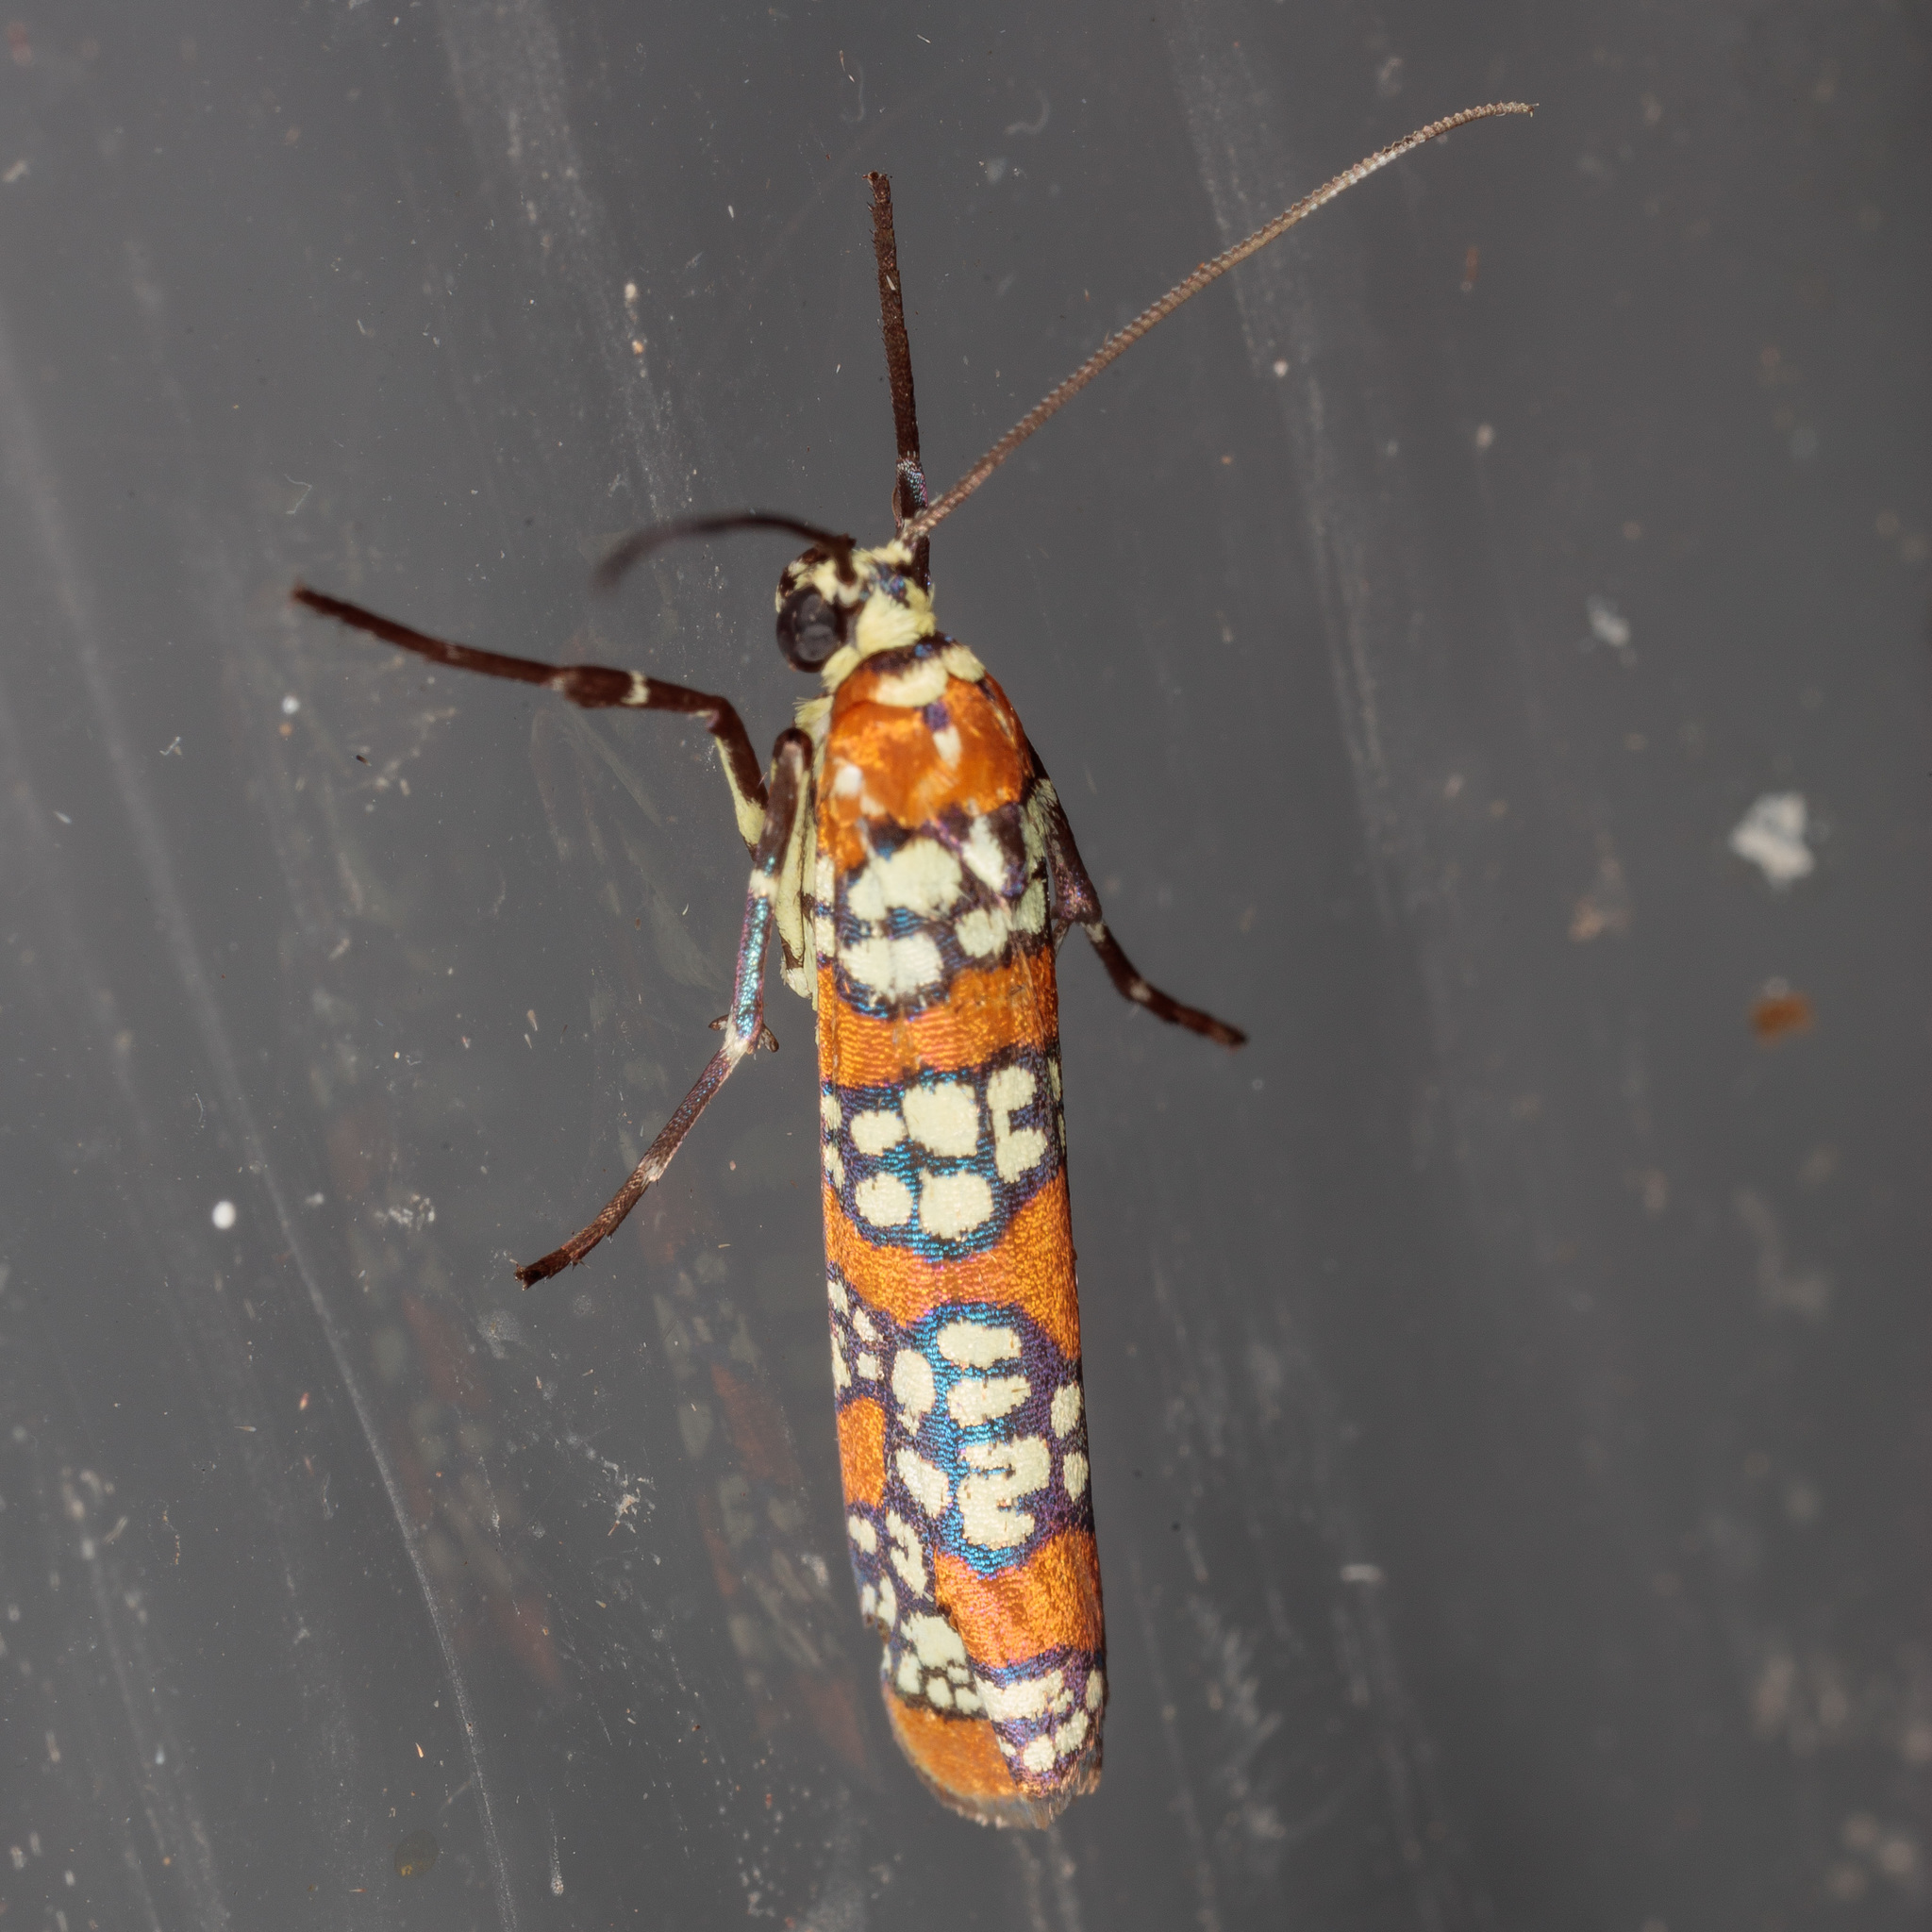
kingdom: Animalia
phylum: Arthropoda
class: Insecta
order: Lepidoptera
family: Attevidae
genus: Atteva
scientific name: Atteva punctella
